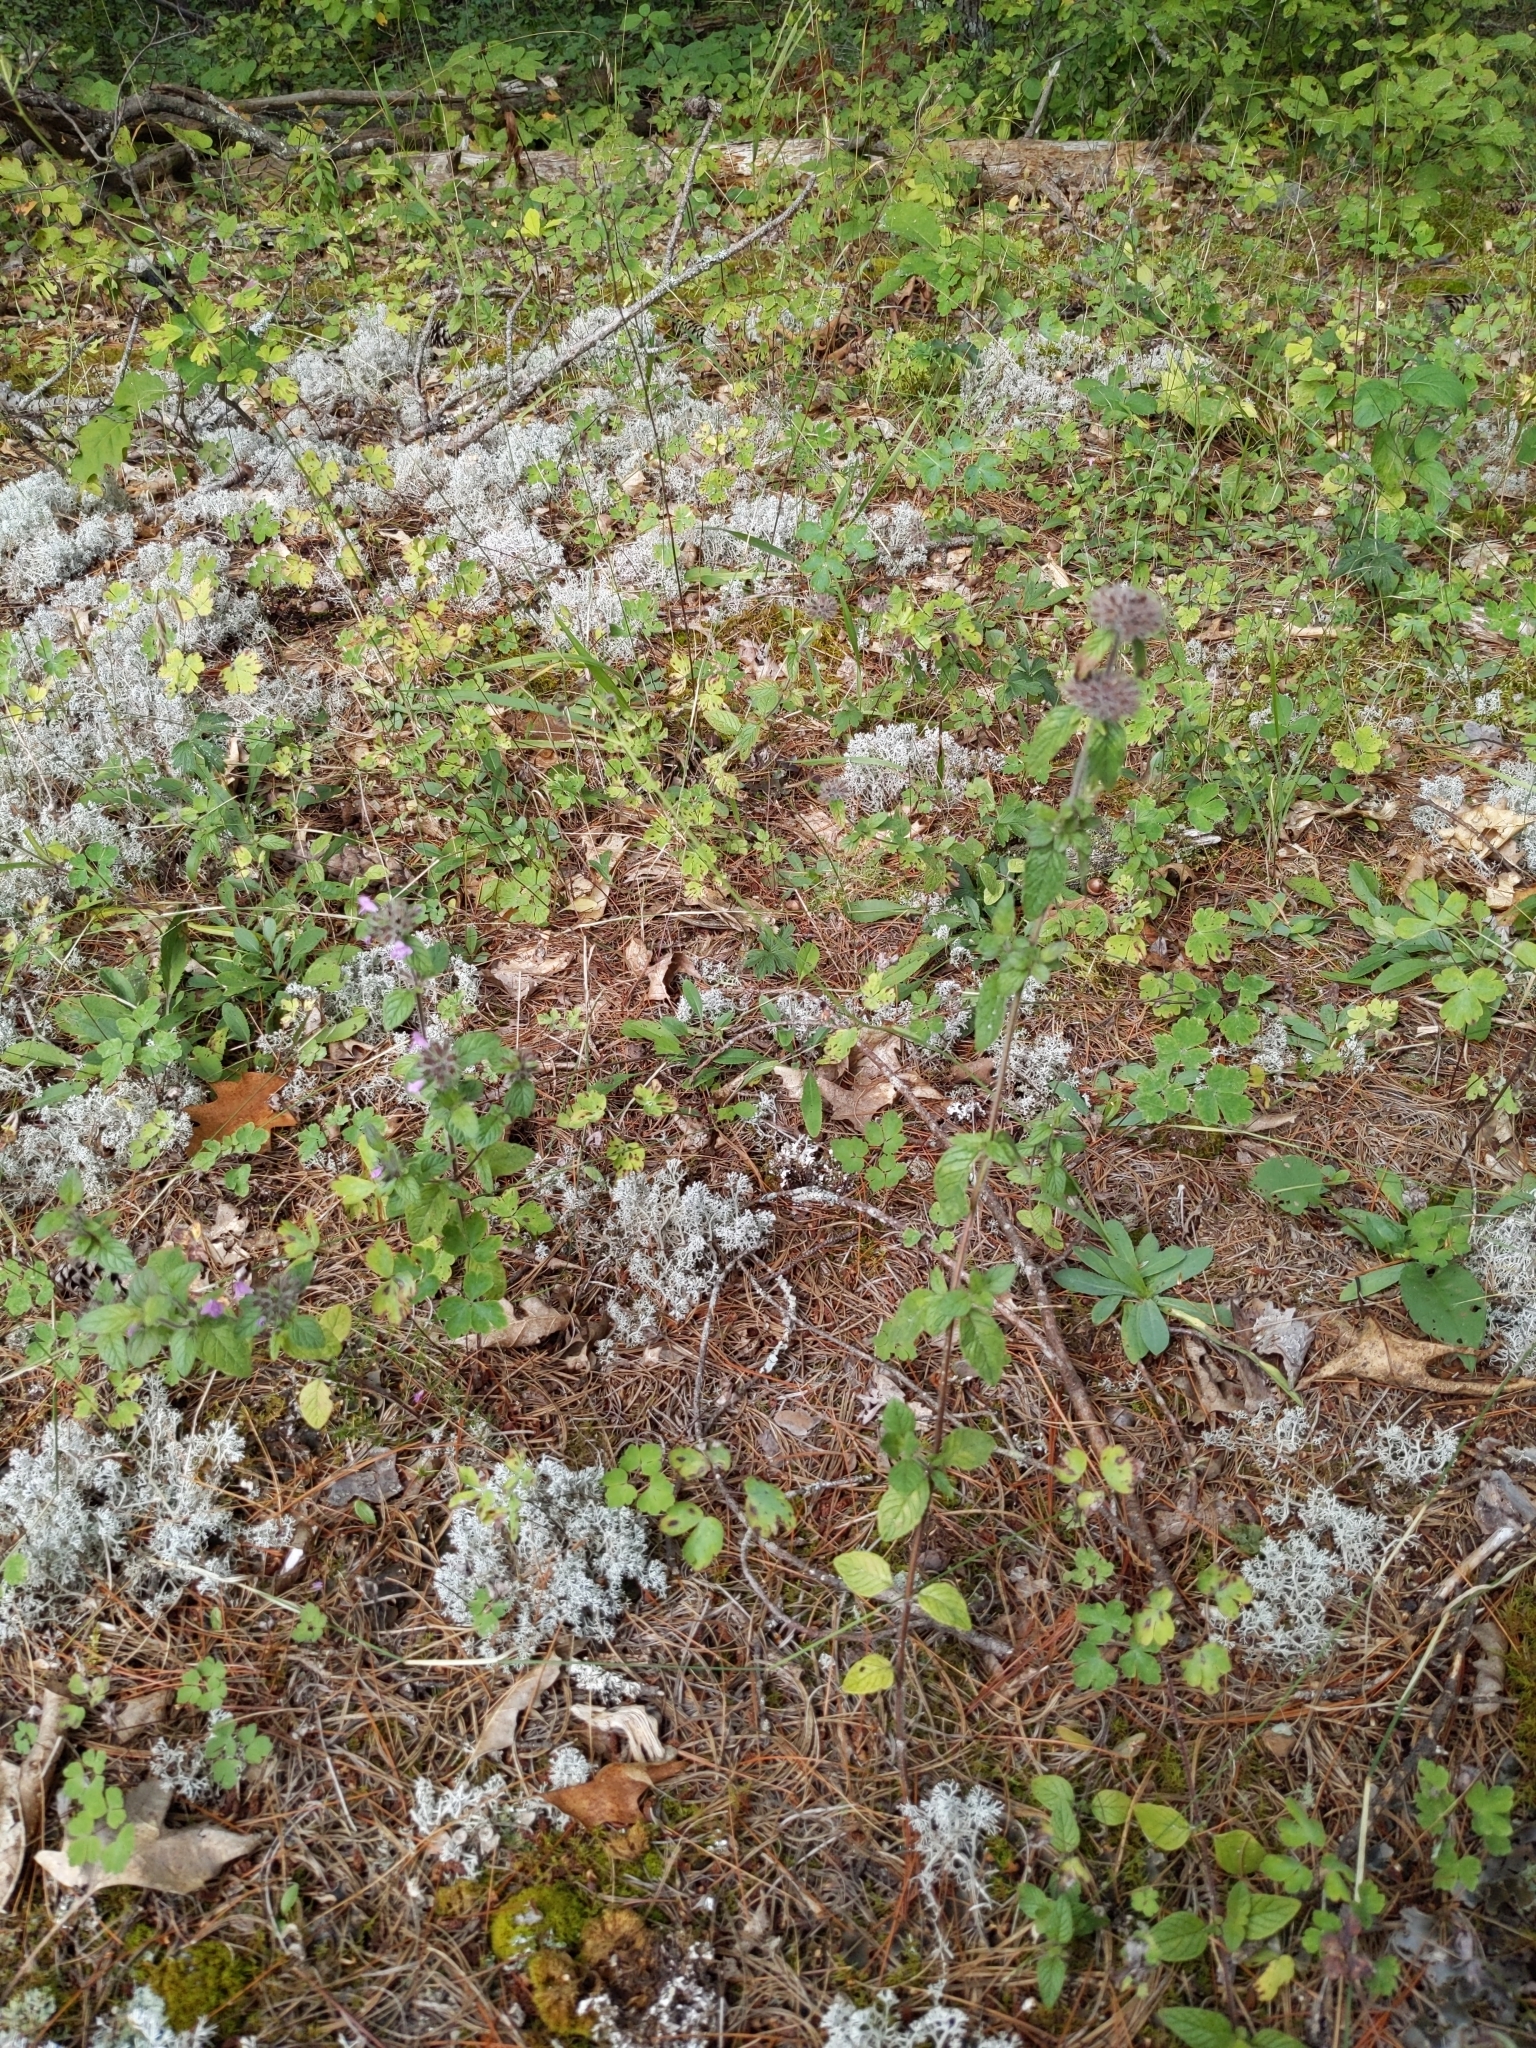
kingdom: Plantae
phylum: Tracheophyta
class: Magnoliopsida
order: Lamiales
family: Lamiaceae
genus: Clinopodium
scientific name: Clinopodium vulgare
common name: Wild basil
